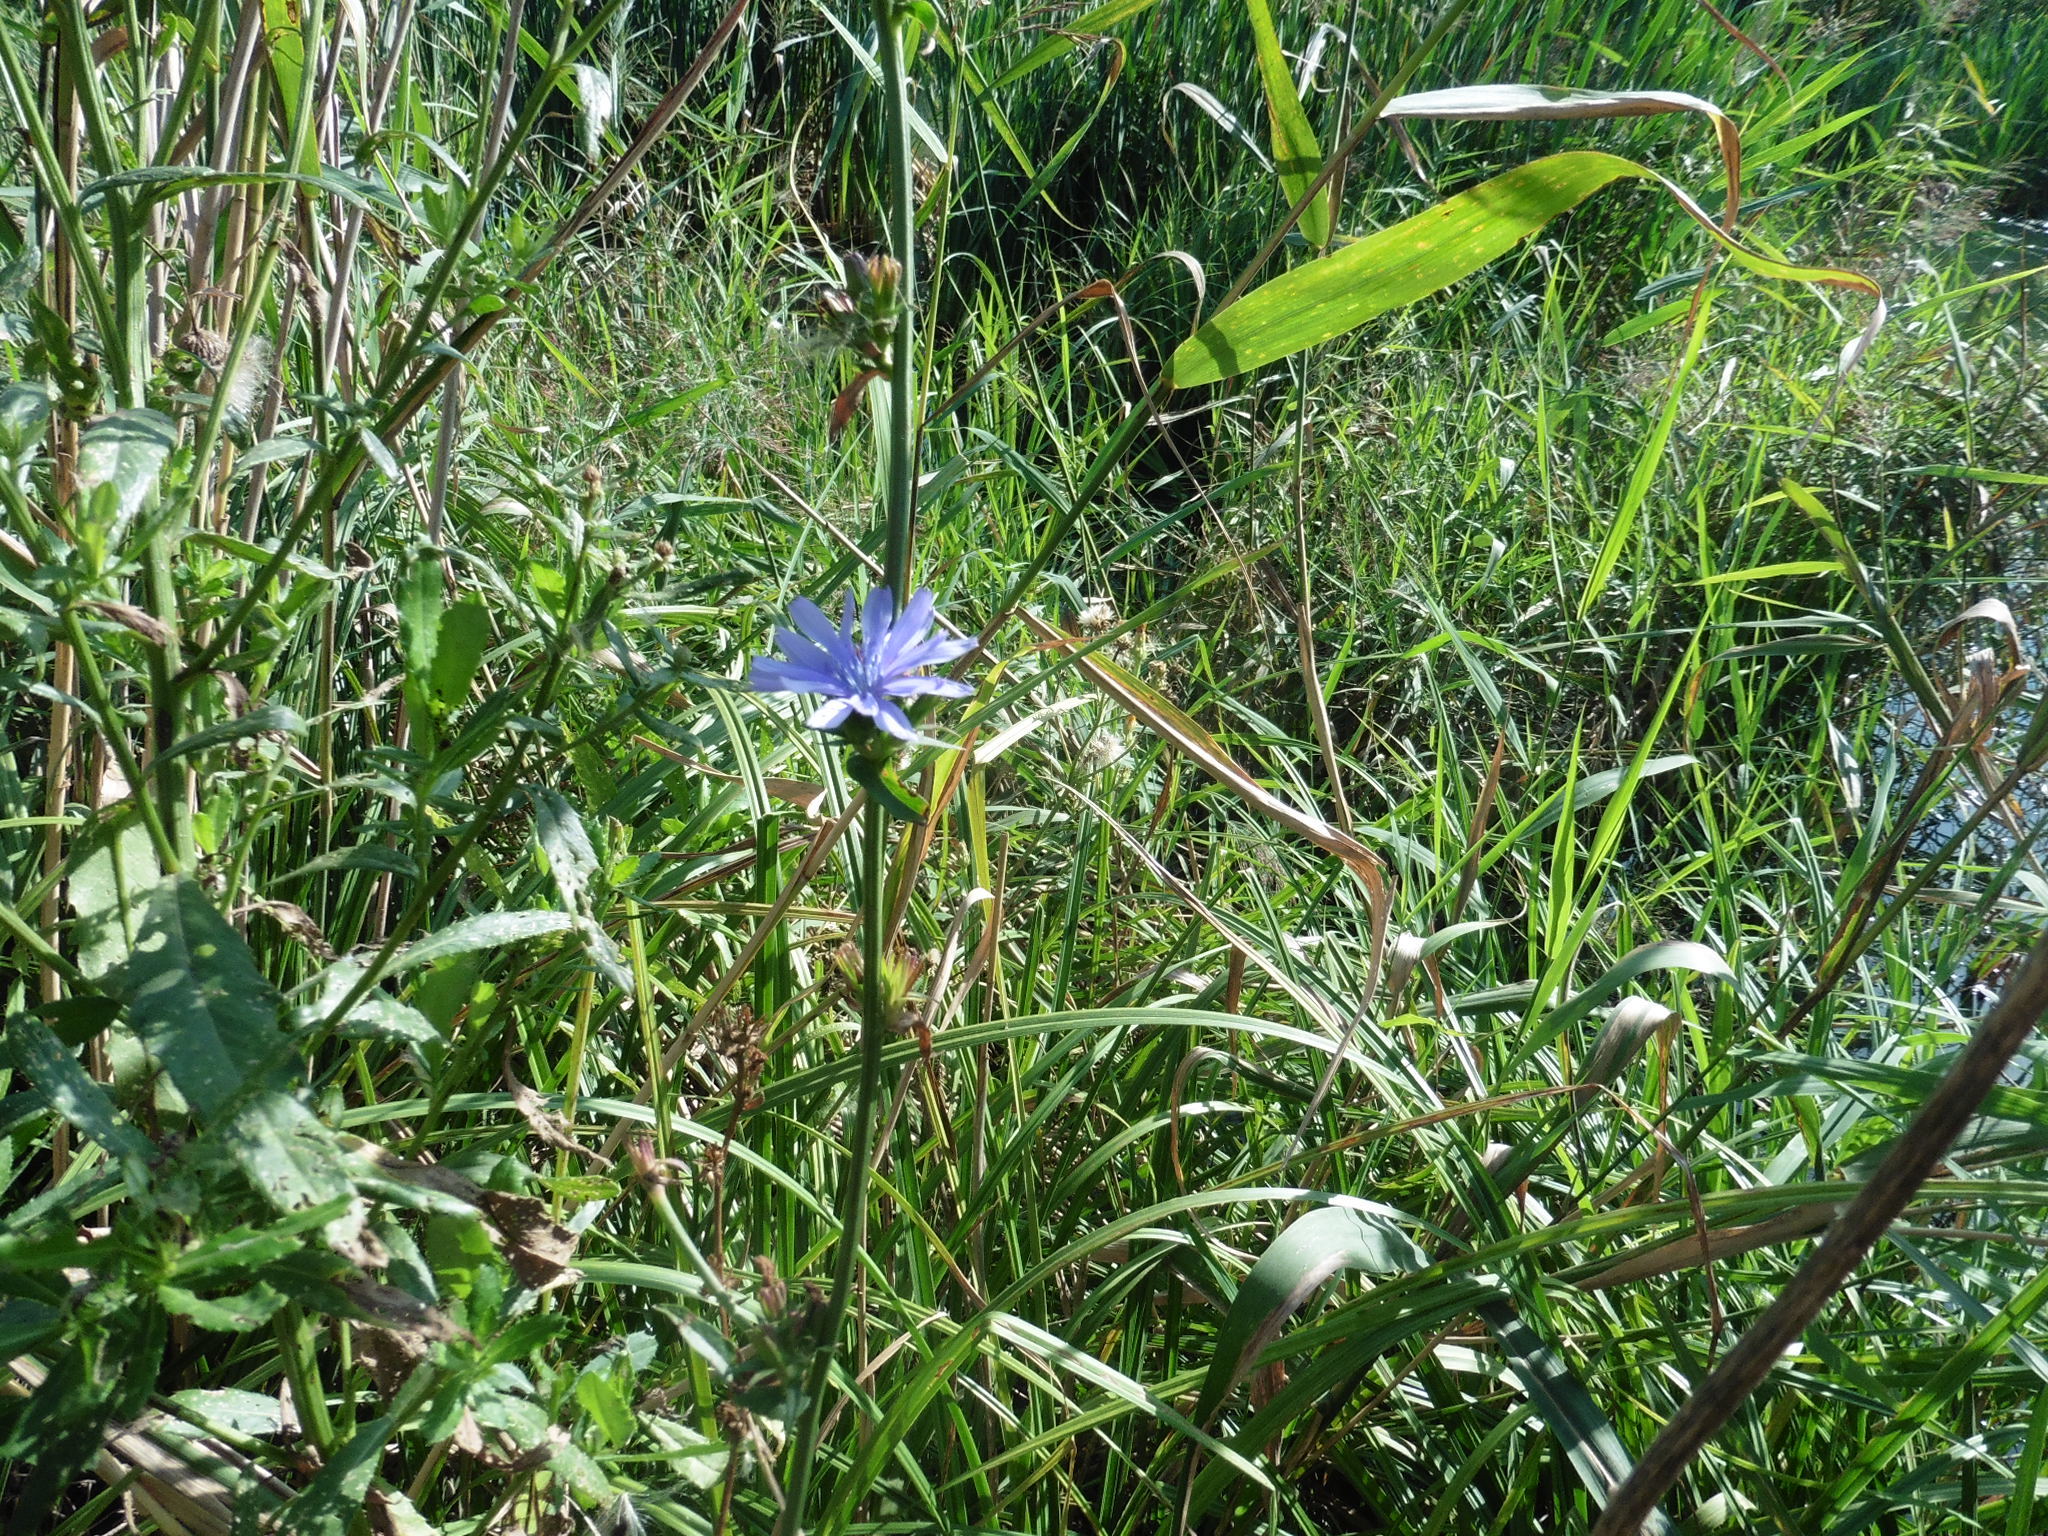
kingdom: Plantae
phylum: Tracheophyta
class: Magnoliopsida
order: Asterales
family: Asteraceae
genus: Cichorium
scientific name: Cichorium intybus
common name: Chicory
